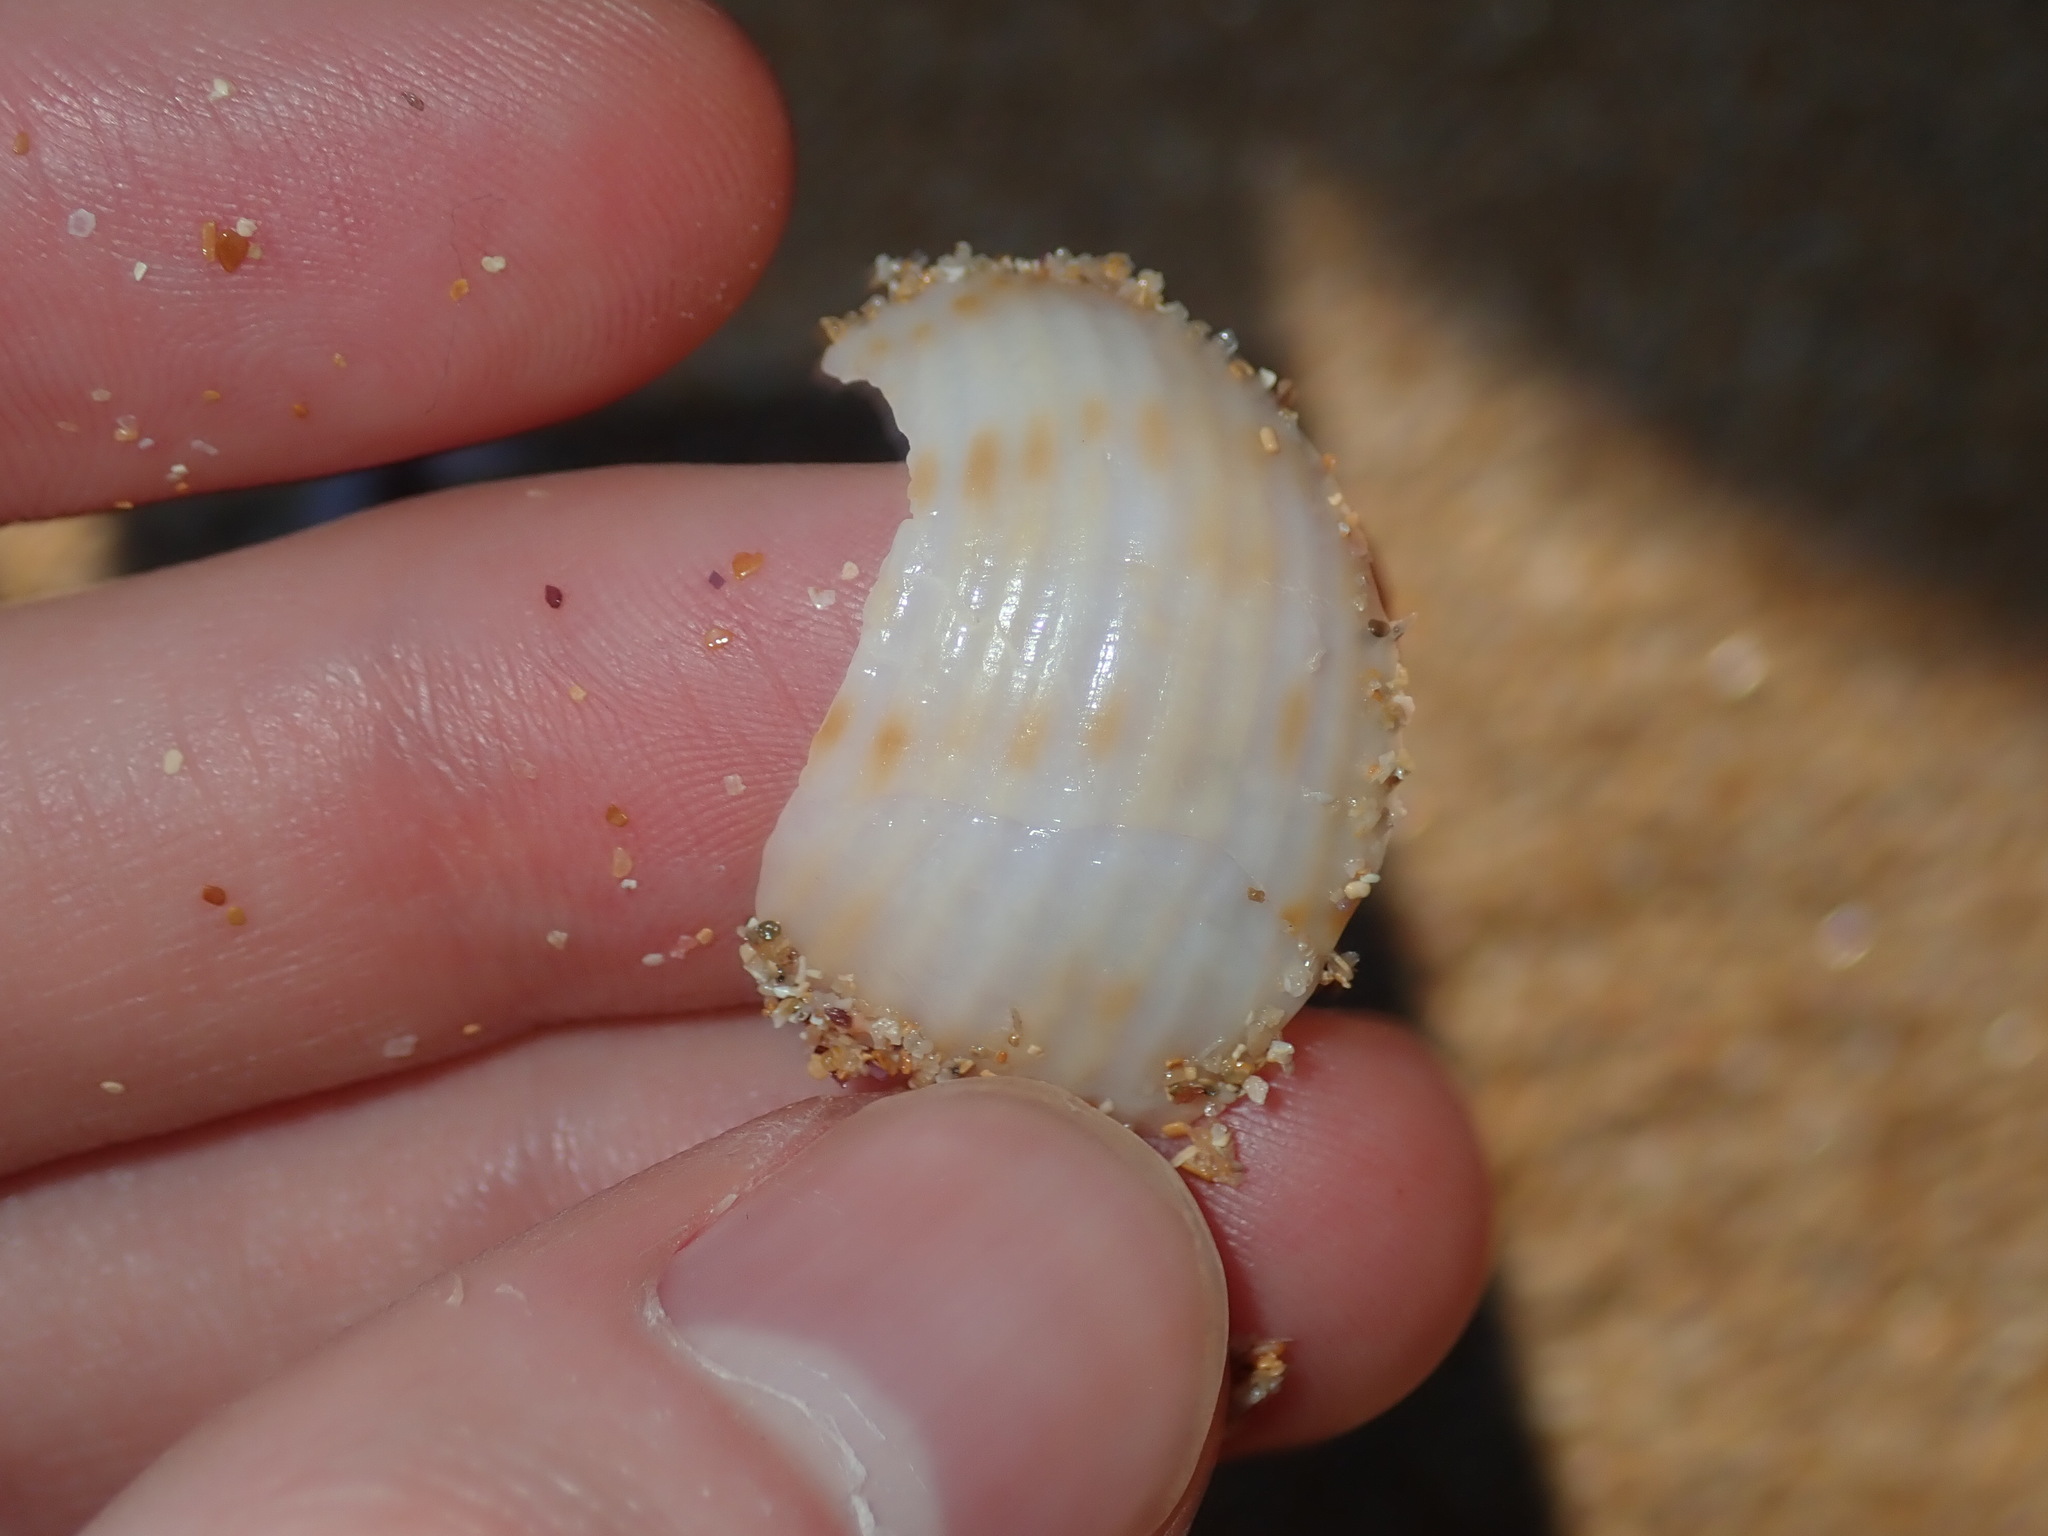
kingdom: Animalia
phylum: Mollusca
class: Gastropoda
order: Littorinimorpha
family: Tonnidae
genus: Tonna
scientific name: Tonna tankervillii
